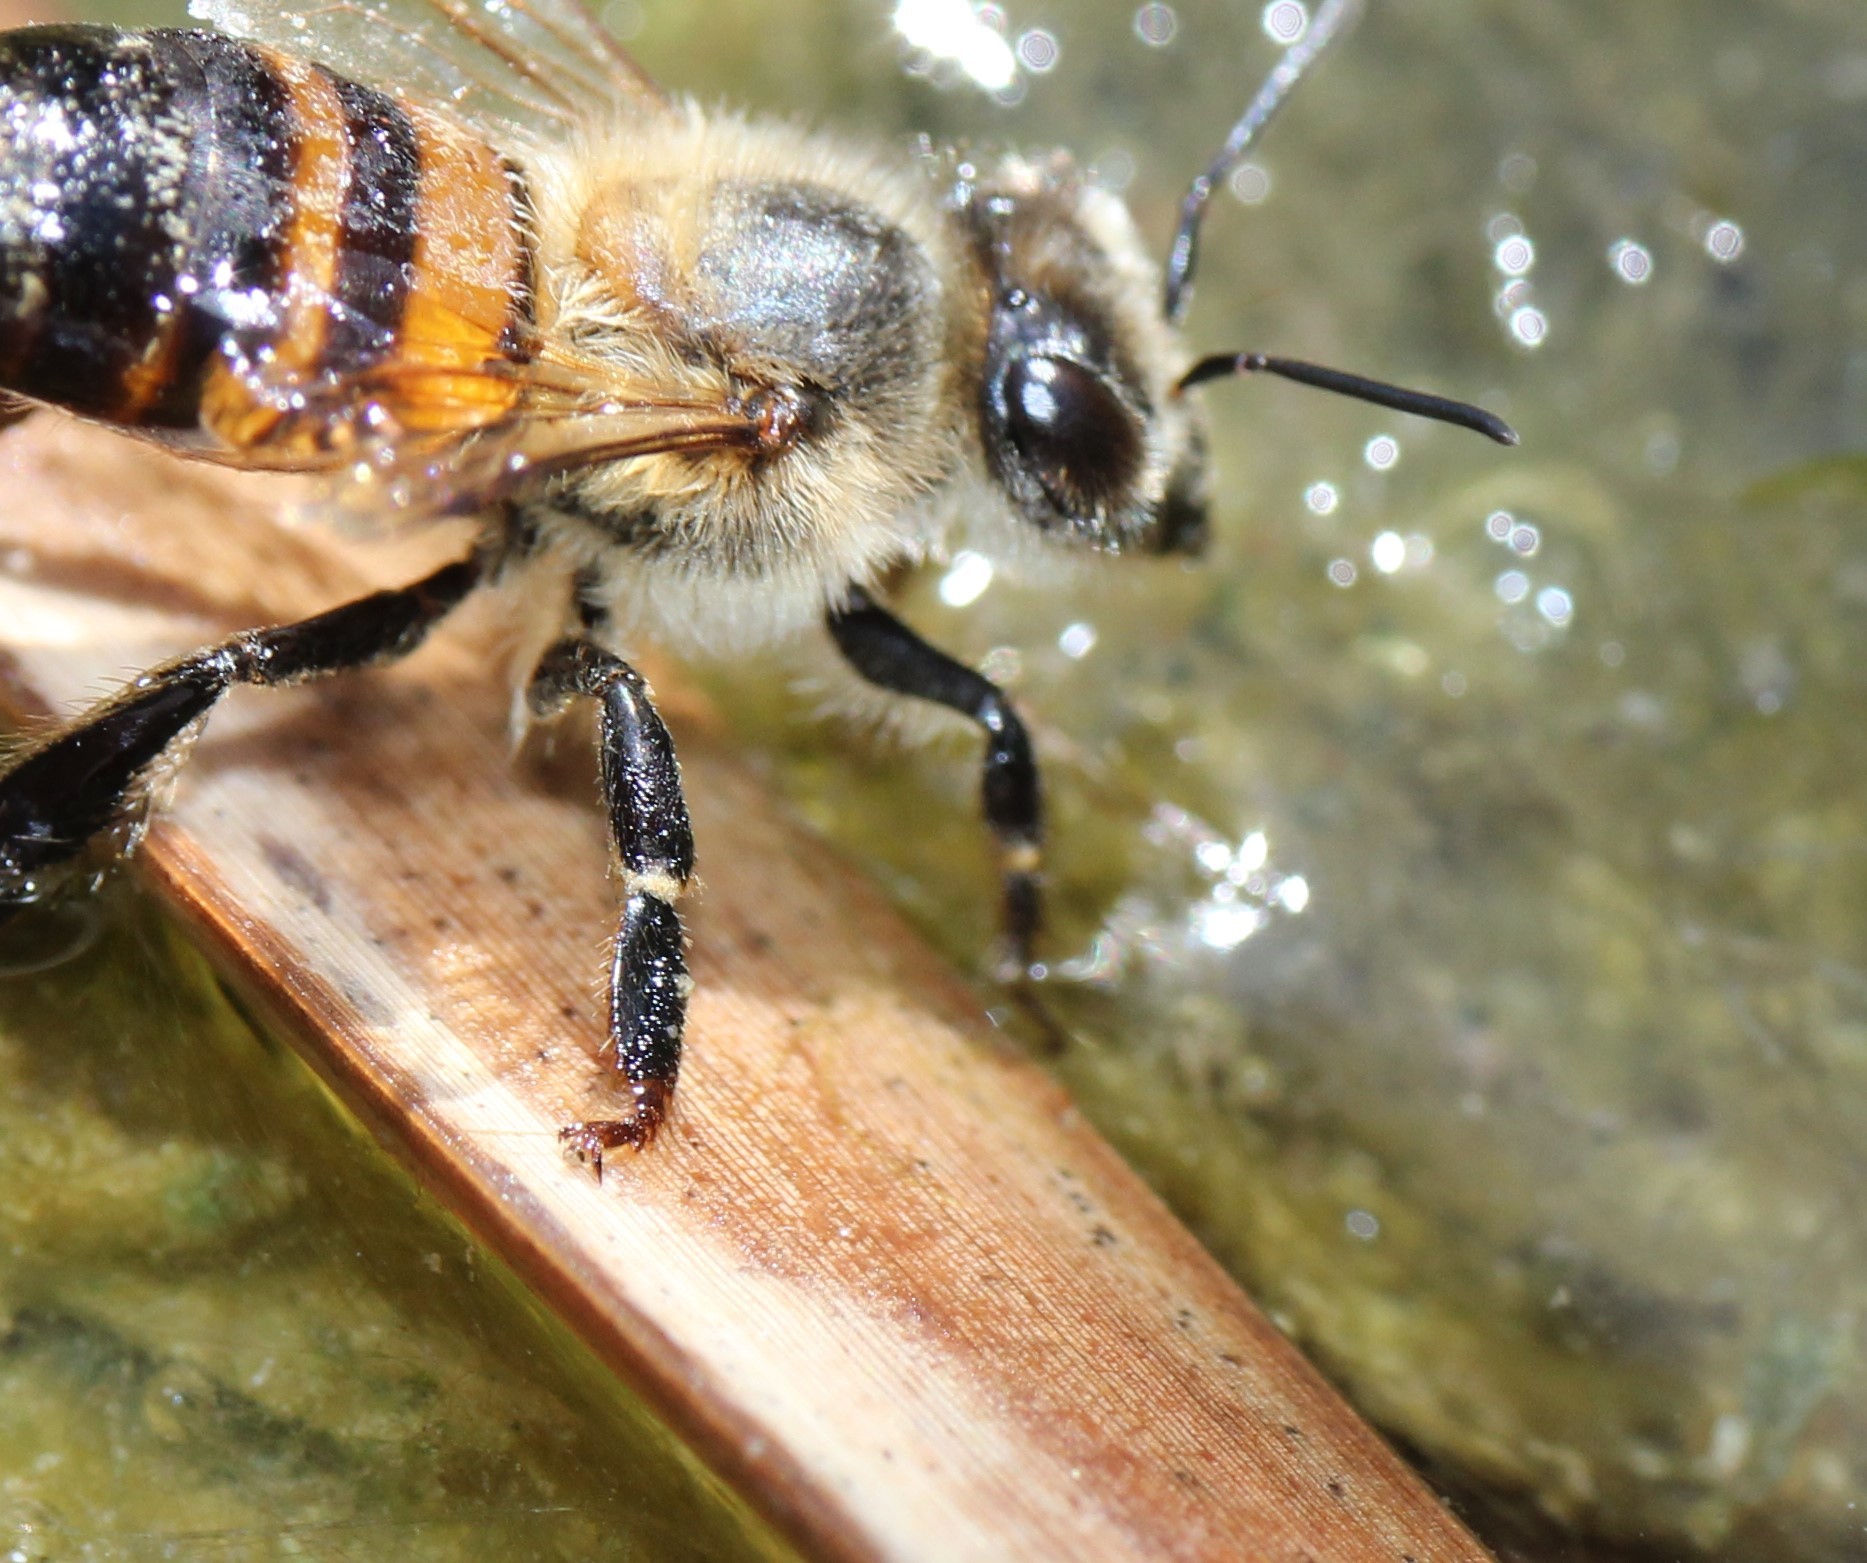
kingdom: Animalia
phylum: Arthropoda
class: Insecta
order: Hymenoptera
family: Apidae
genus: Apis
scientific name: Apis mellifera
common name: Honey bee
